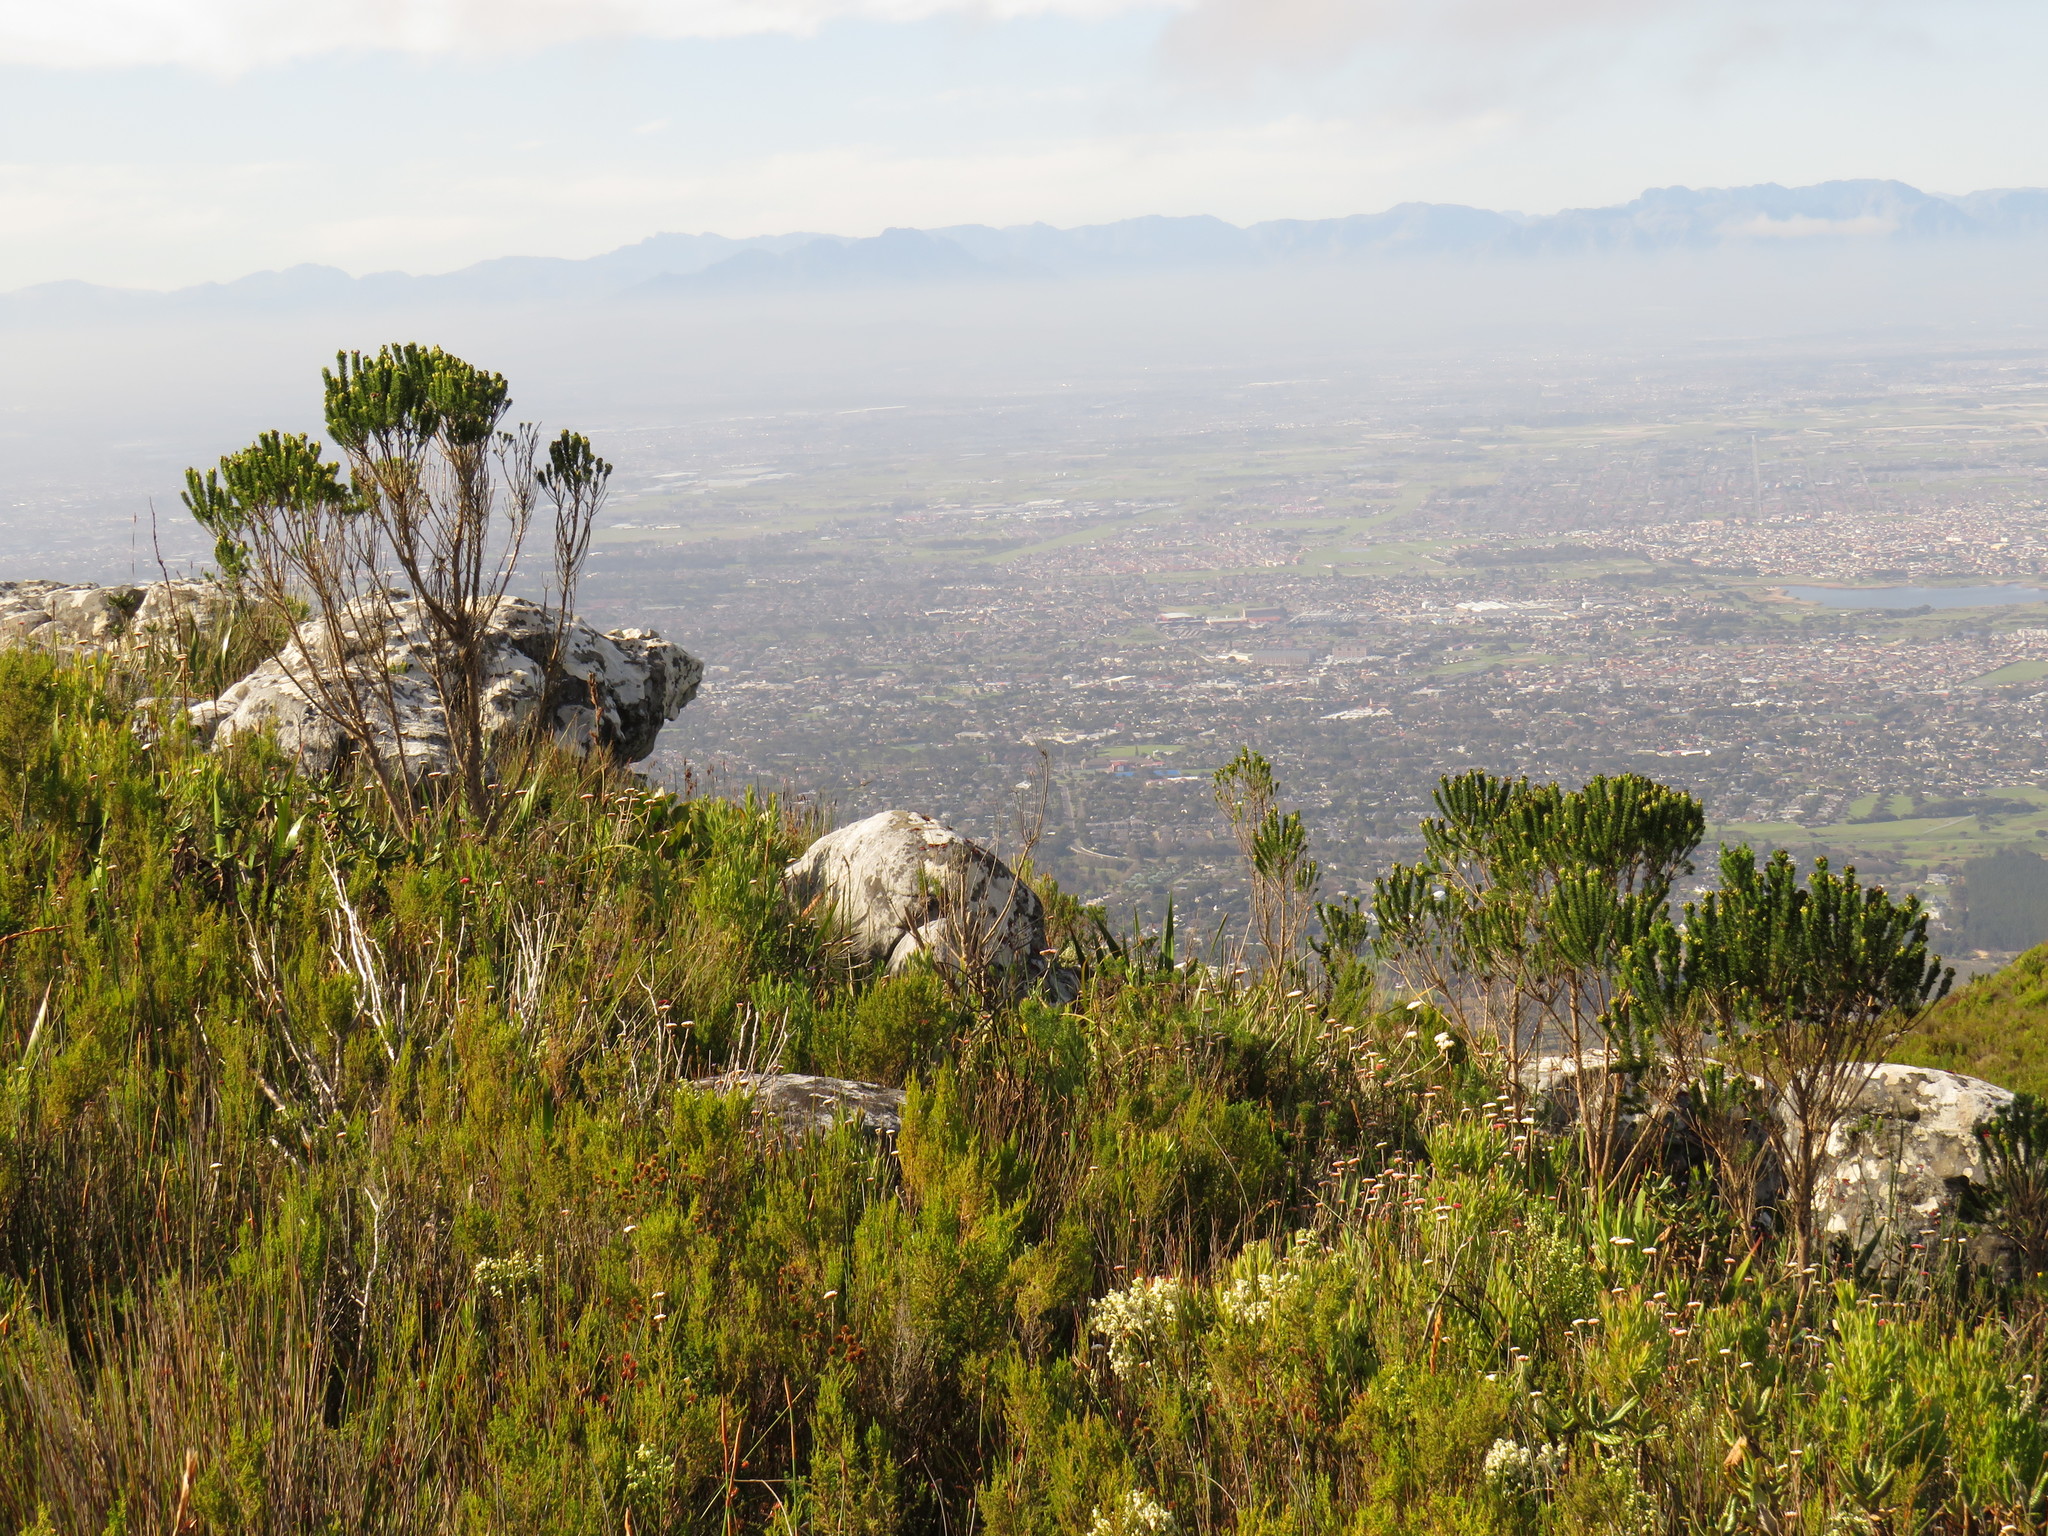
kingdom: Plantae
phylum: Tracheophyta
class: Magnoliopsida
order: Fabales
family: Fabaceae
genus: Aspalathus
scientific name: Aspalathus capitata
